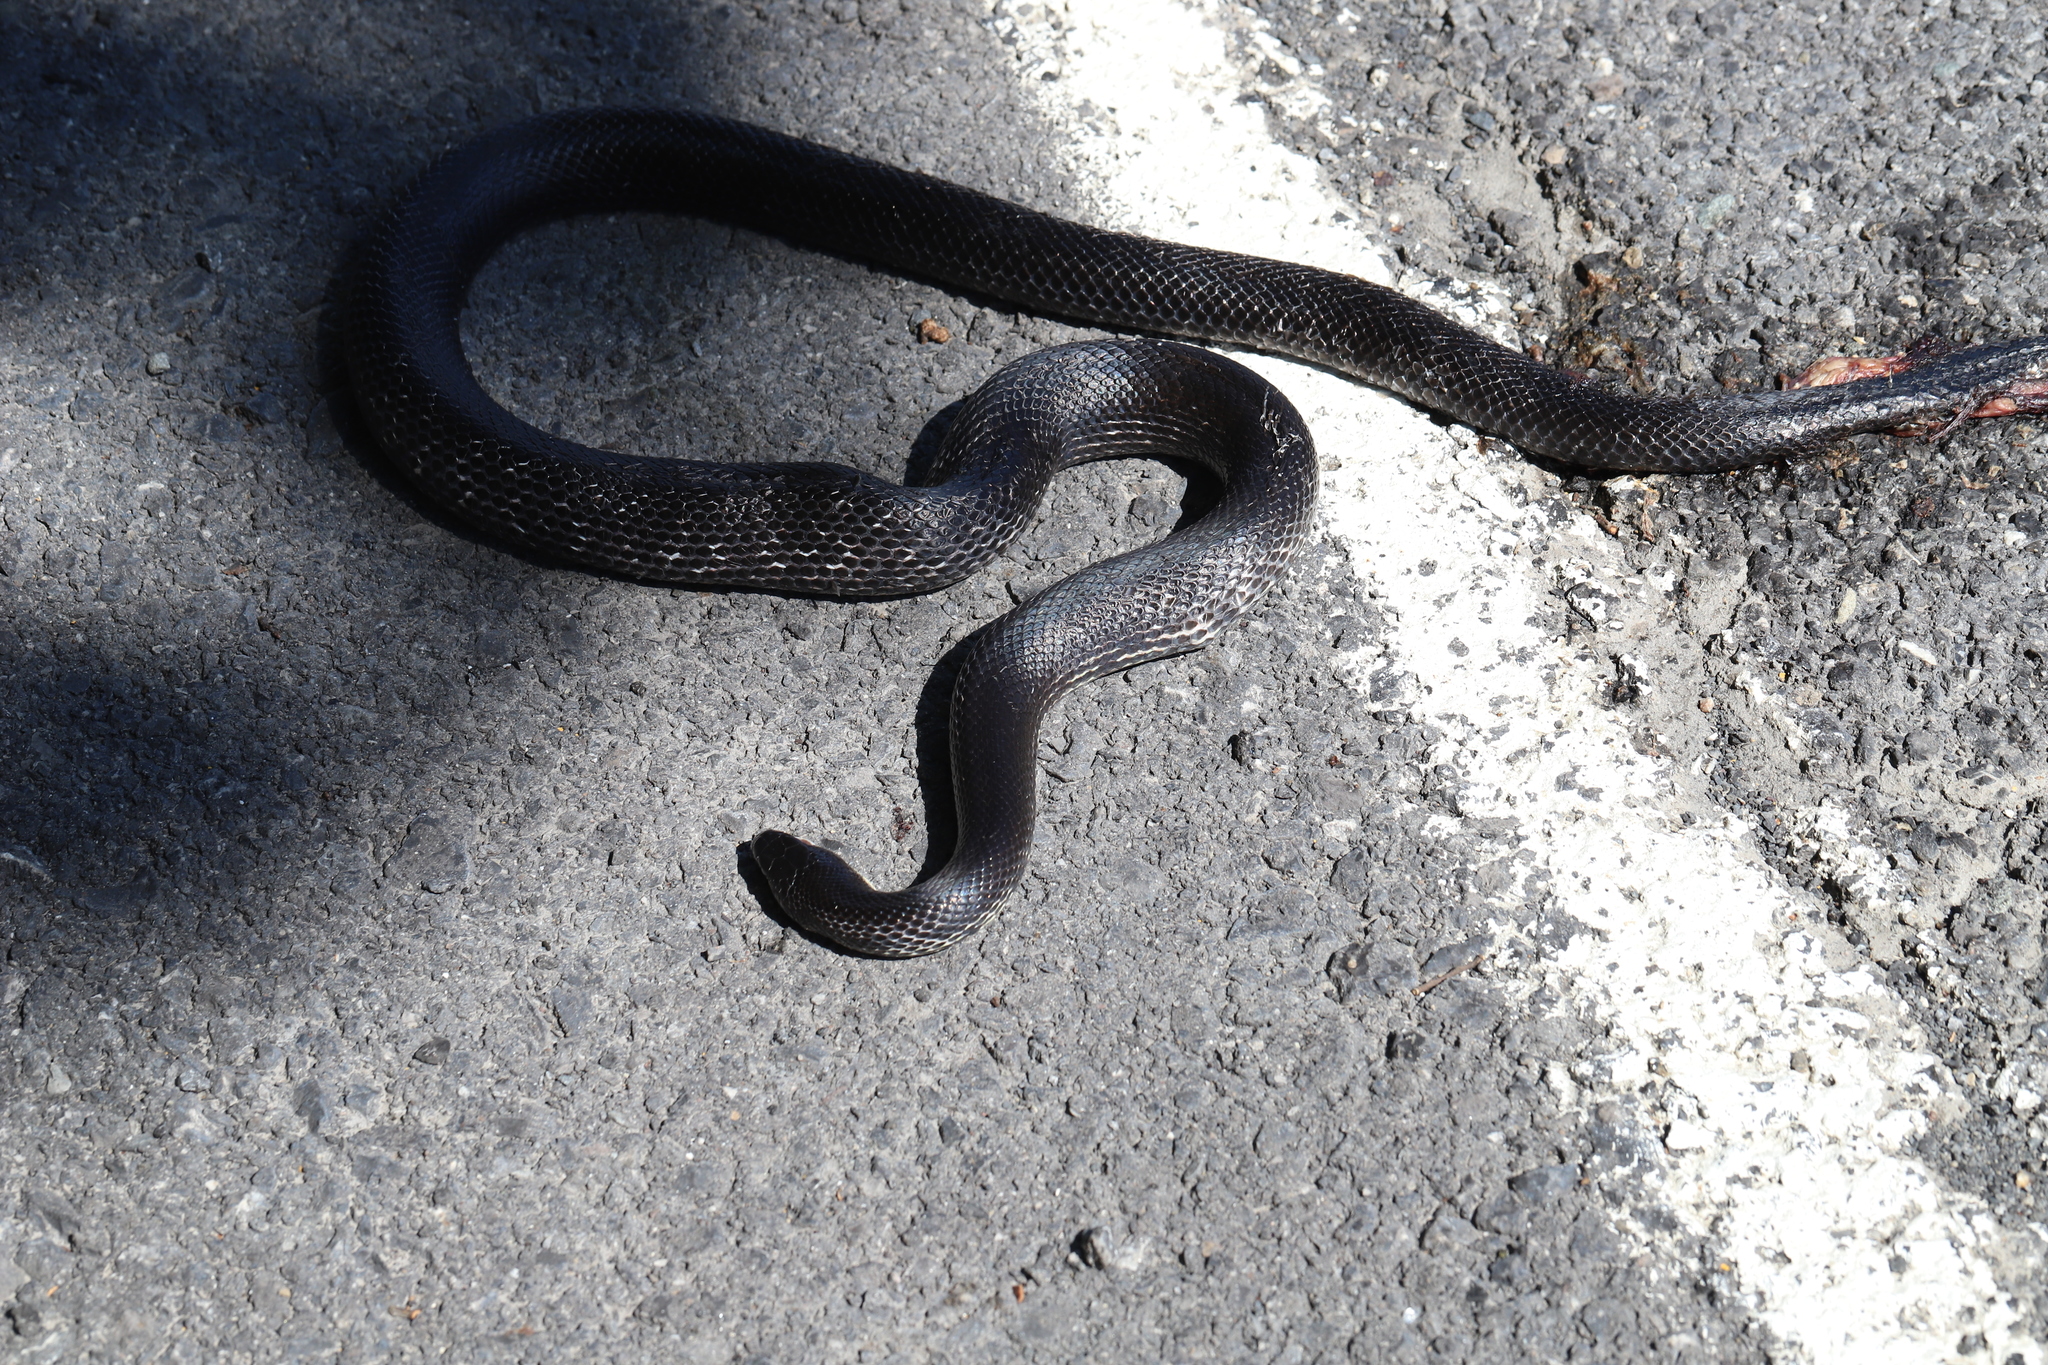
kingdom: Animalia
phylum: Chordata
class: Squamata
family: Colubridae
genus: Pantherophis
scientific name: Pantherophis alleghaniensis
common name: Eastern rat snake
